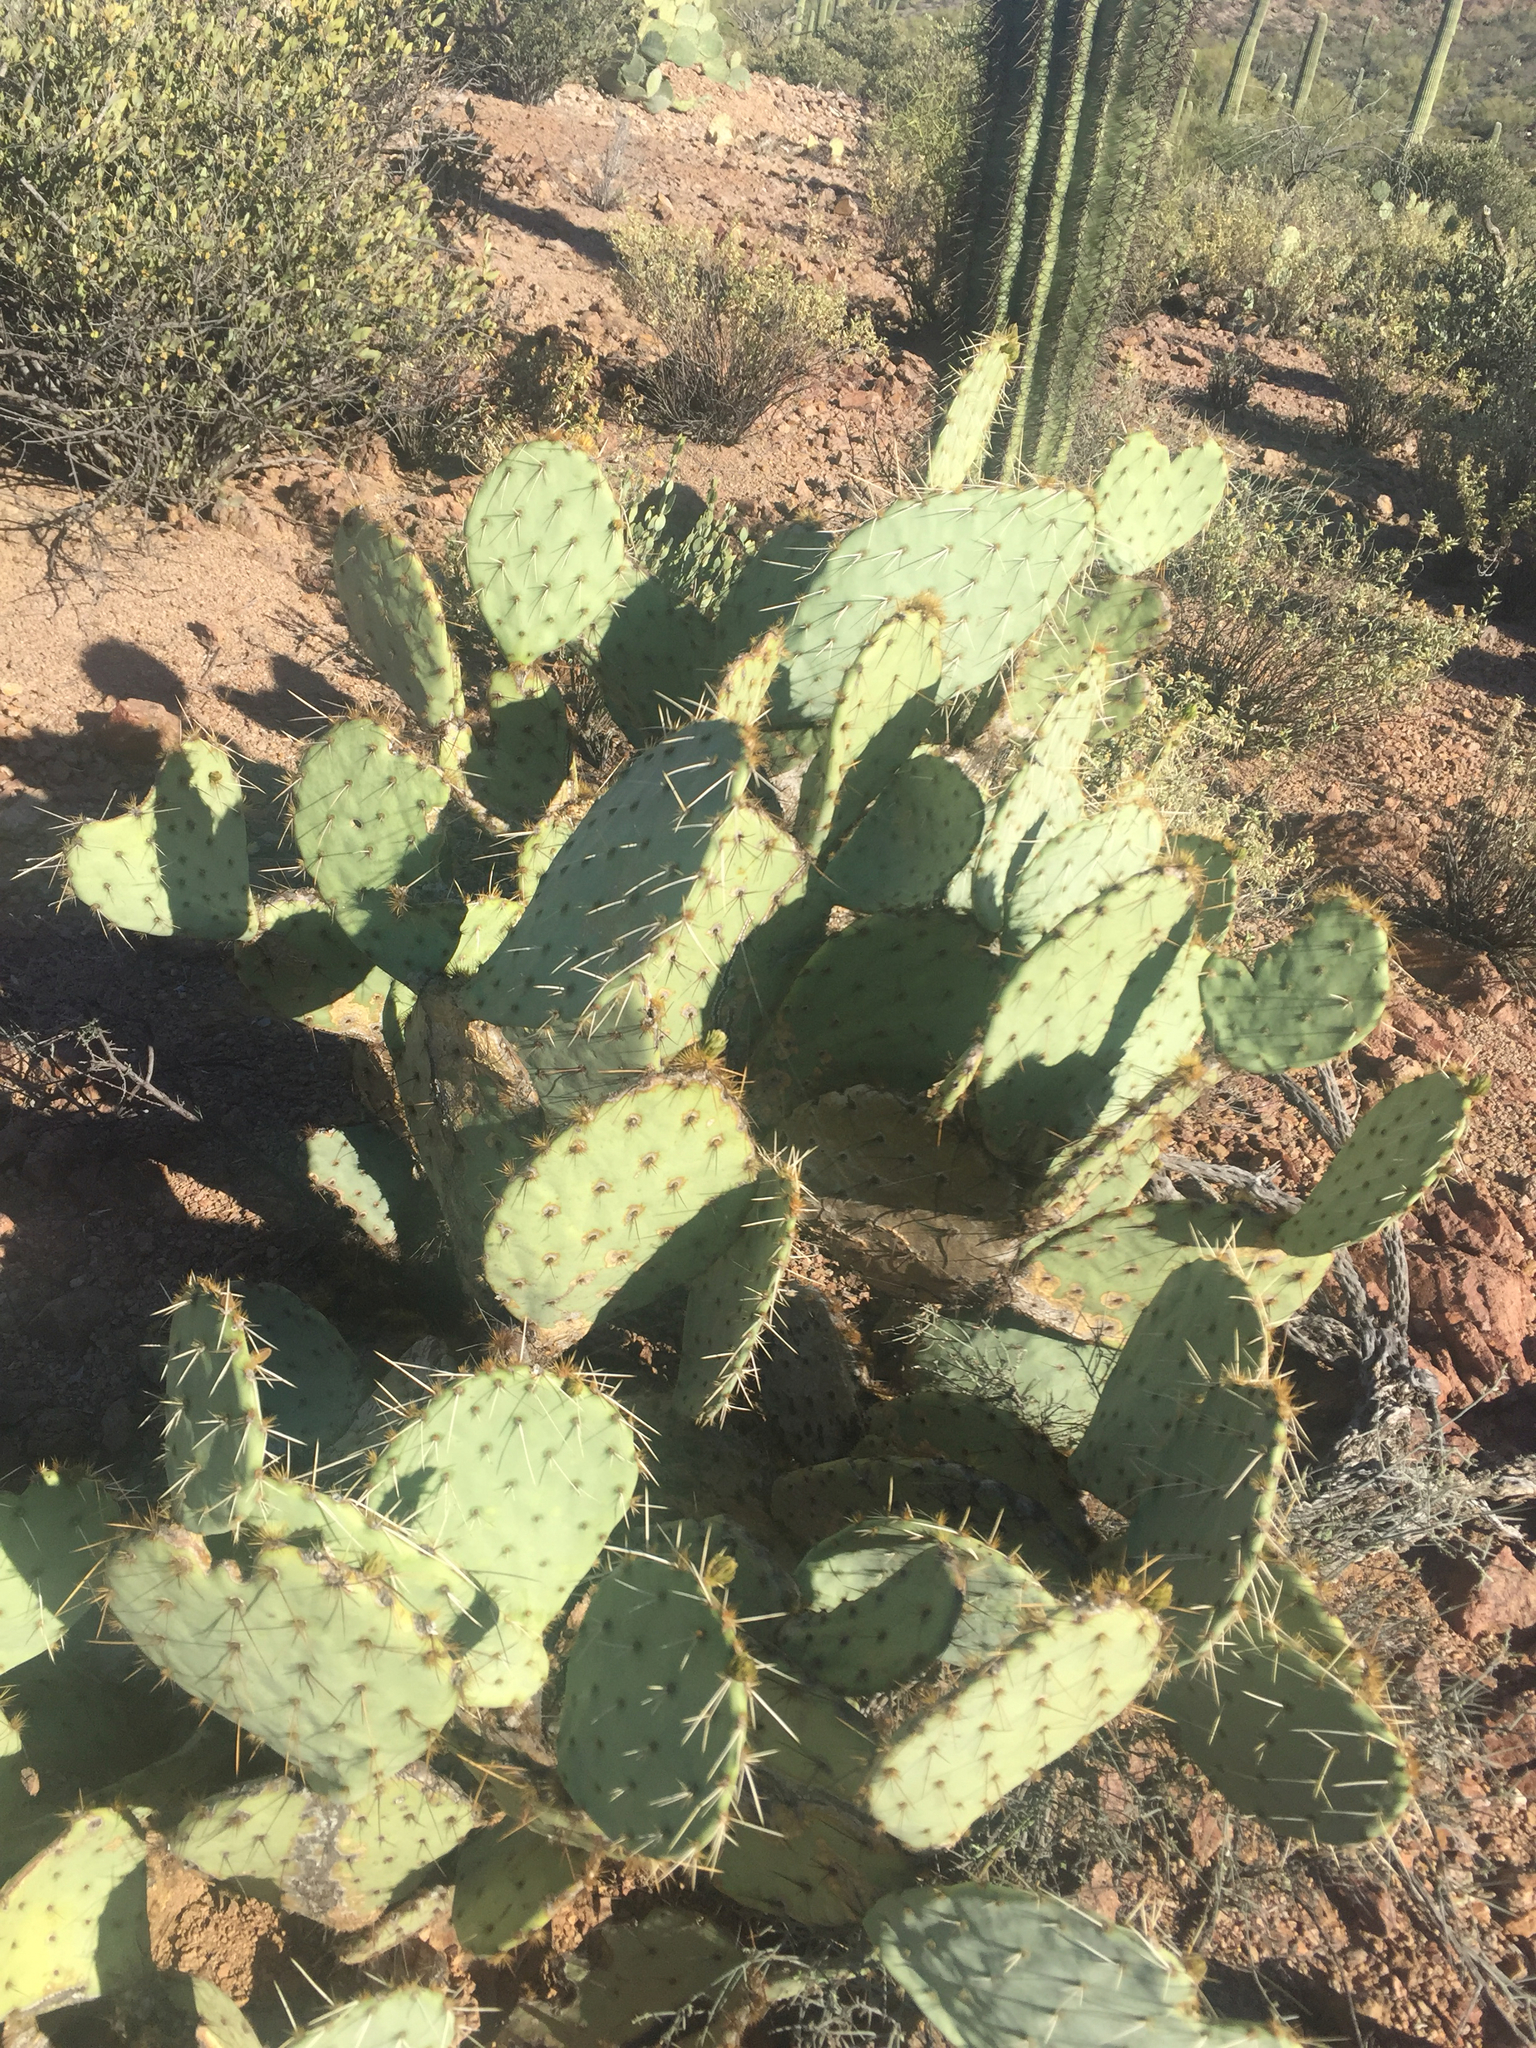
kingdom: Plantae
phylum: Tracheophyta
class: Magnoliopsida
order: Caryophyllales
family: Cactaceae
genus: Opuntia
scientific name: Opuntia engelmannii
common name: Cactus-apple
